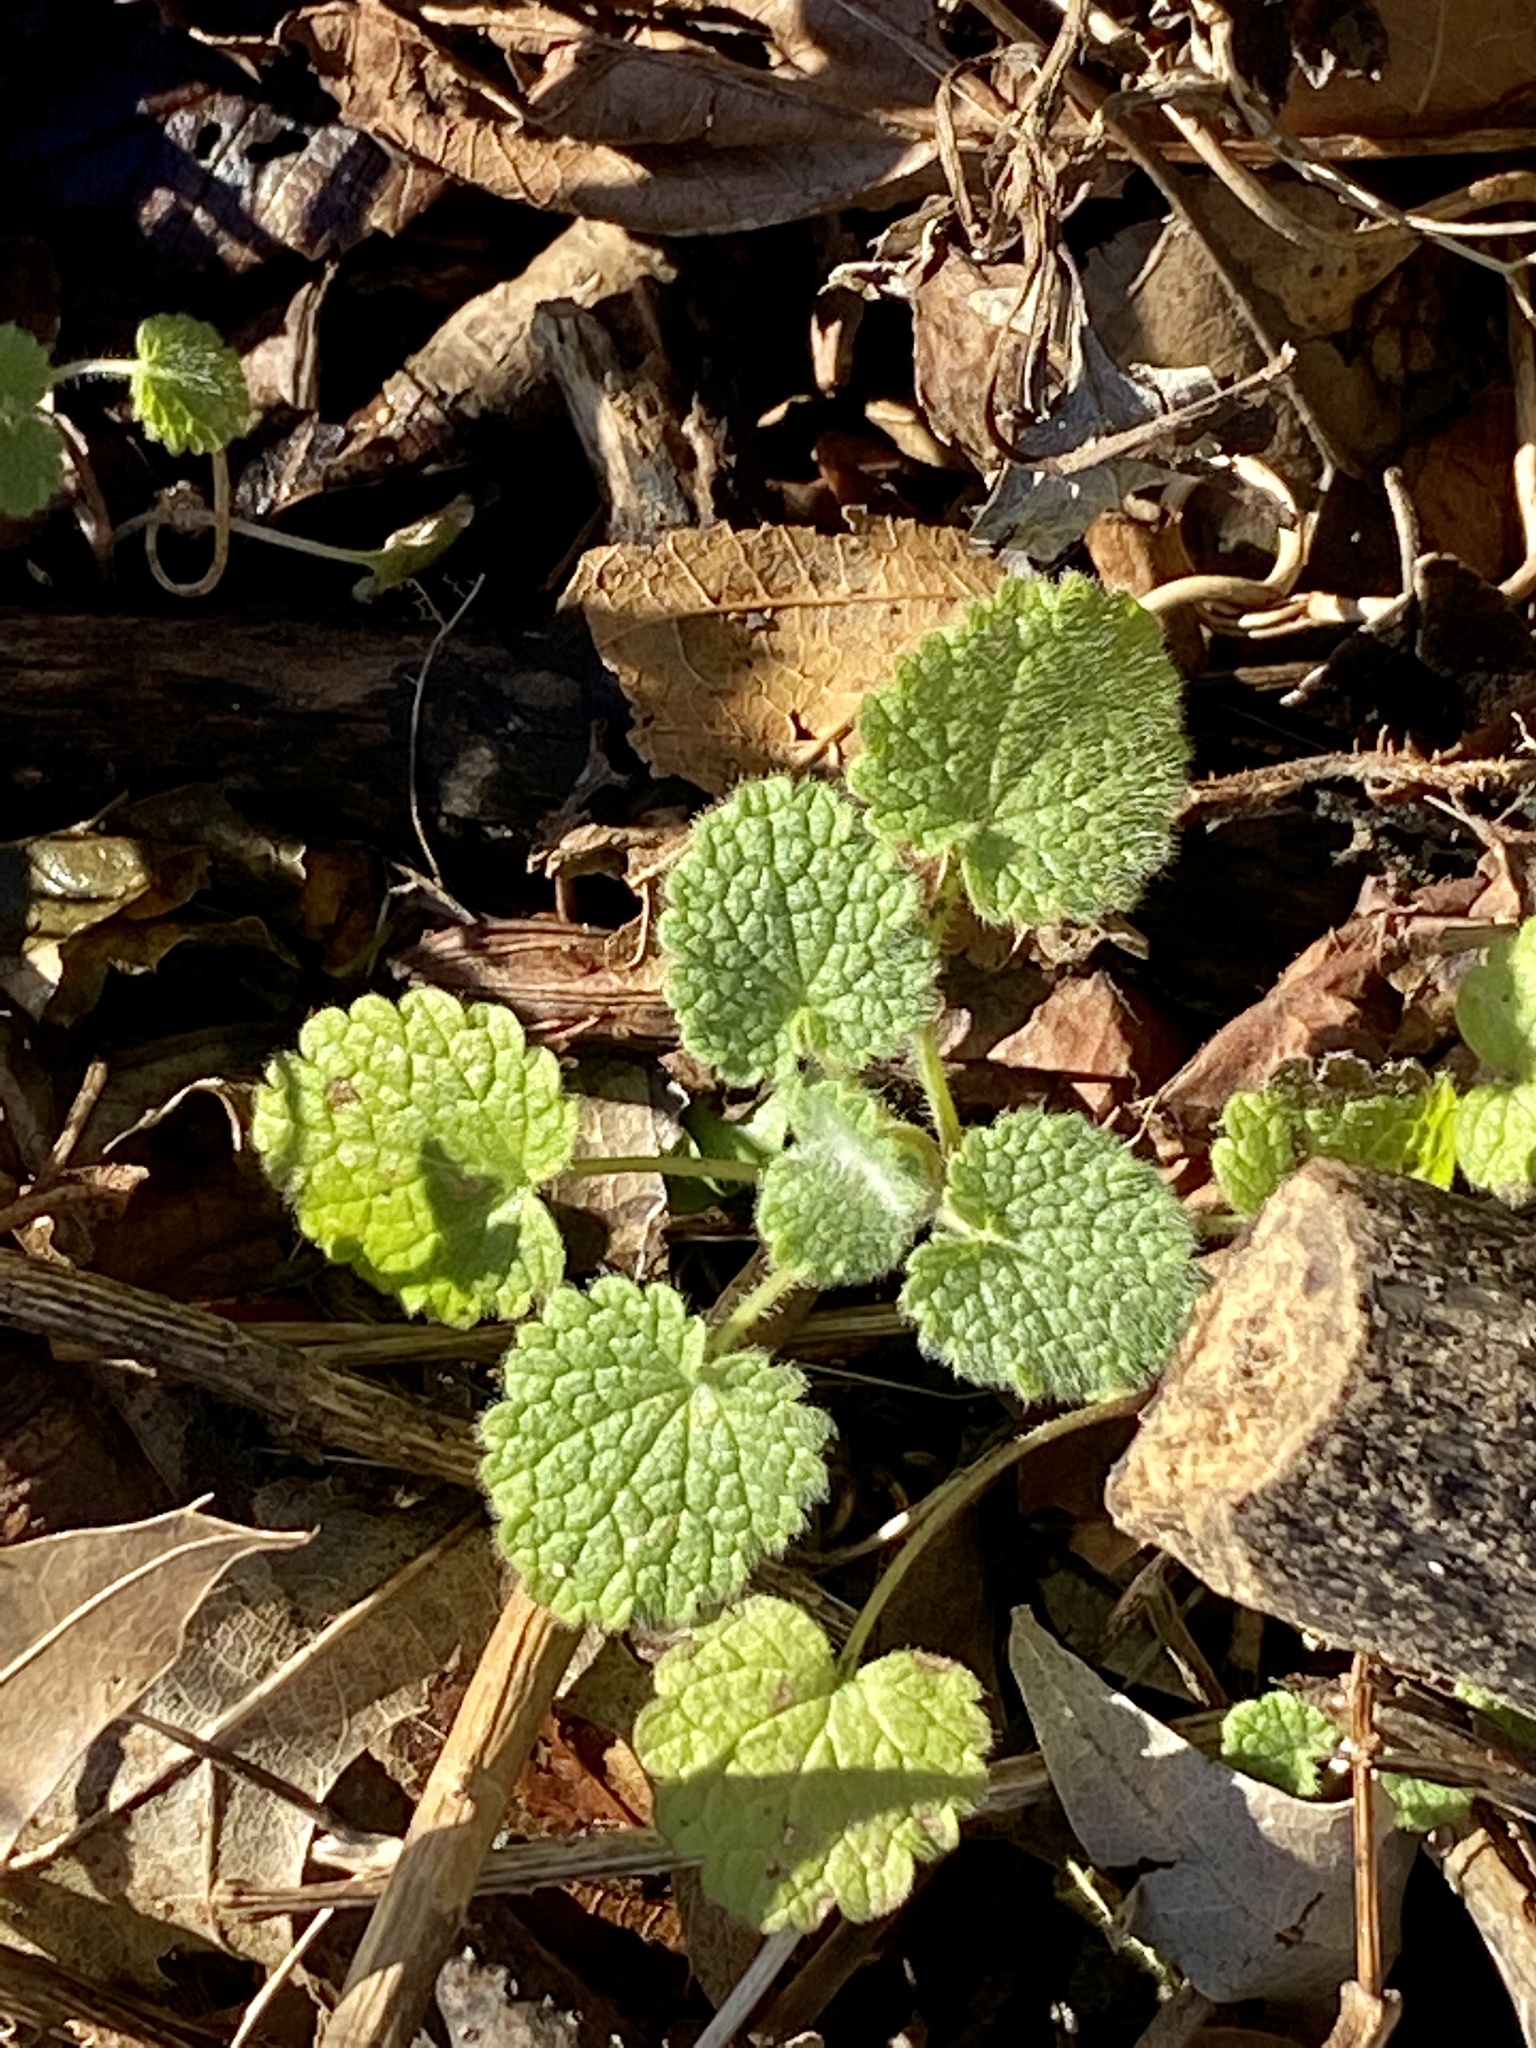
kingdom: Plantae
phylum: Tracheophyta
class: Magnoliopsida
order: Lamiales
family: Lamiaceae
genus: Lamium
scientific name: Lamium purpureum
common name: Red dead-nettle
